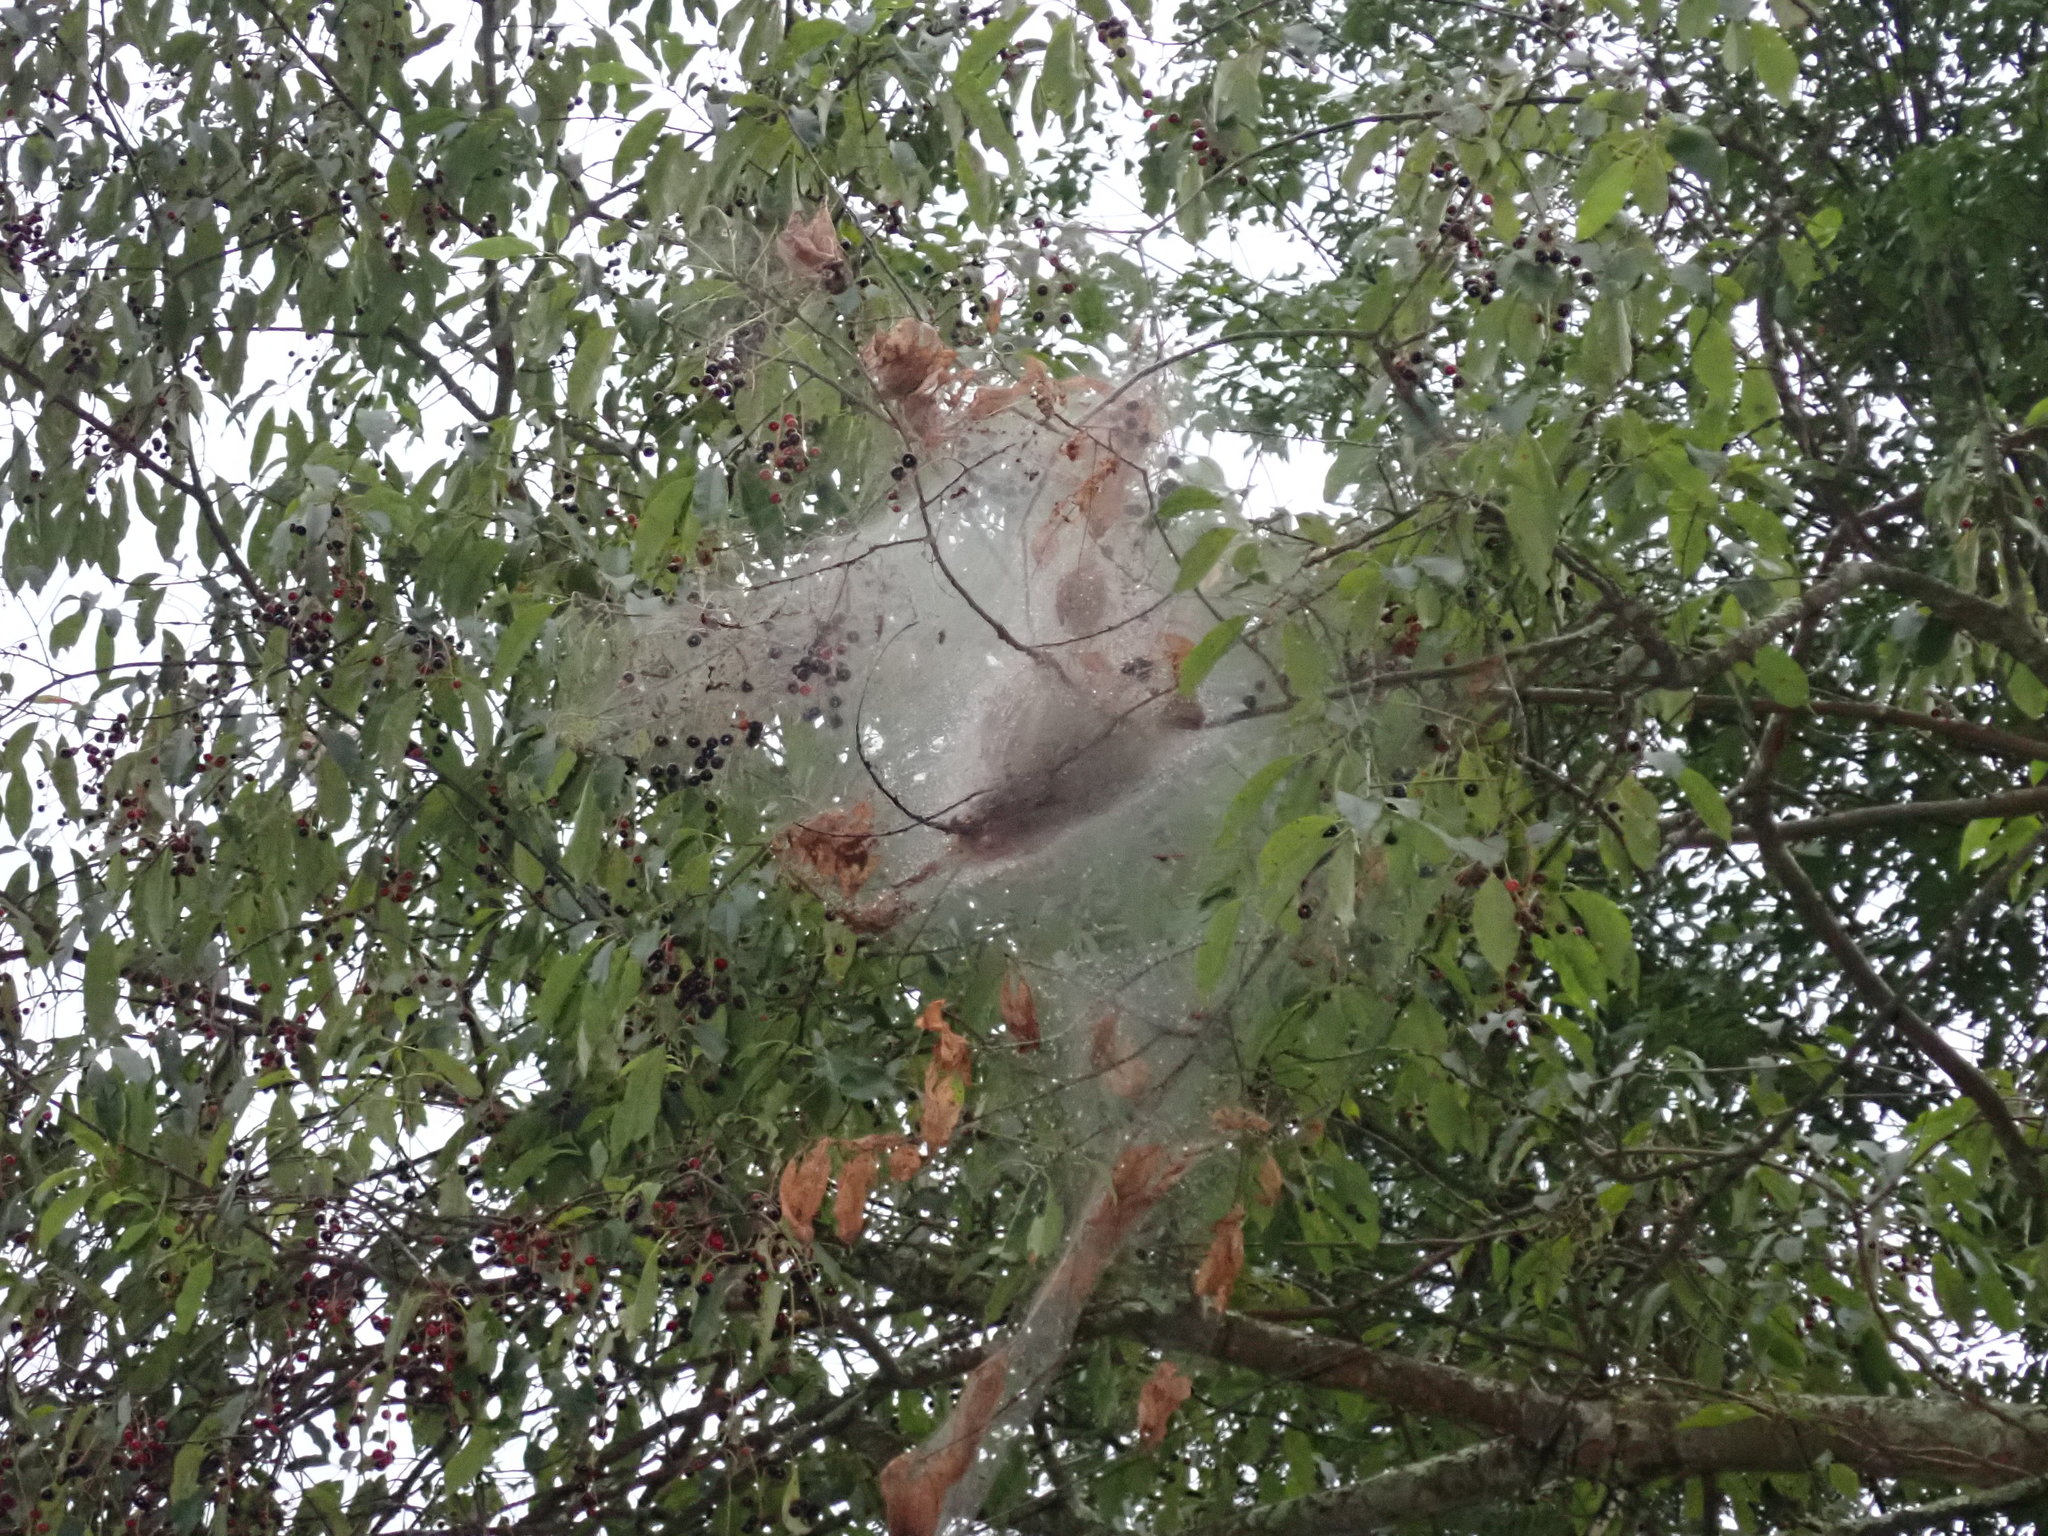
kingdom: Animalia
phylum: Arthropoda
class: Insecta
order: Lepidoptera
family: Erebidae
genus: Hyphantria
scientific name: Hyphantria cunea
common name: American white moth
